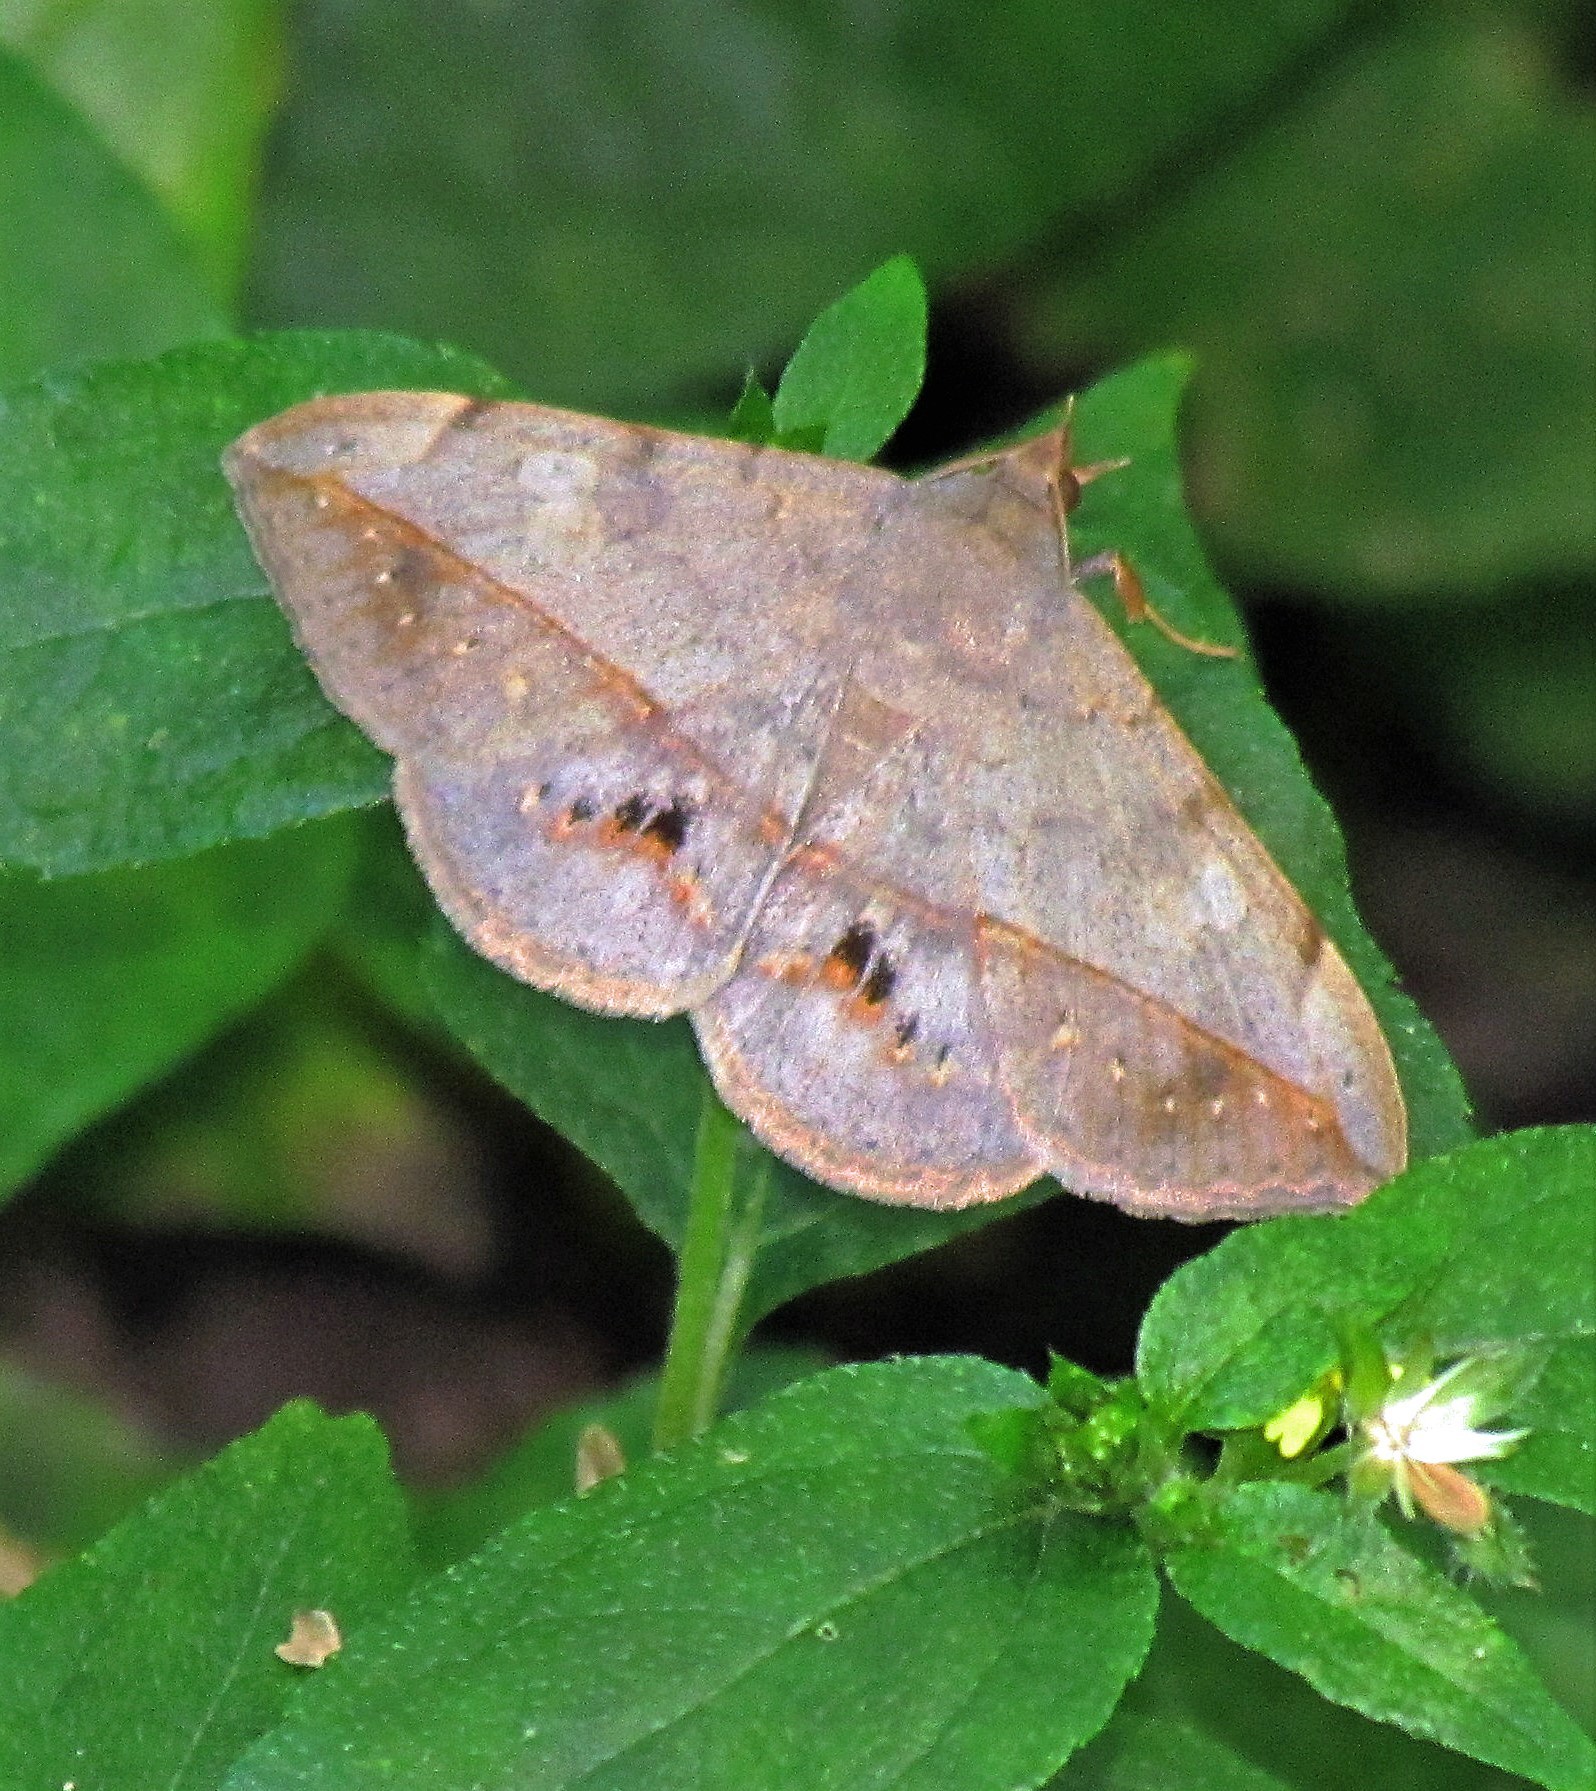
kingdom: Animalia
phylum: Arthropoda
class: Insecta
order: Lepidoptera
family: Erebidae
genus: Anticarsia
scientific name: Anticarsia gemmatalis
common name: Cutworm moth
